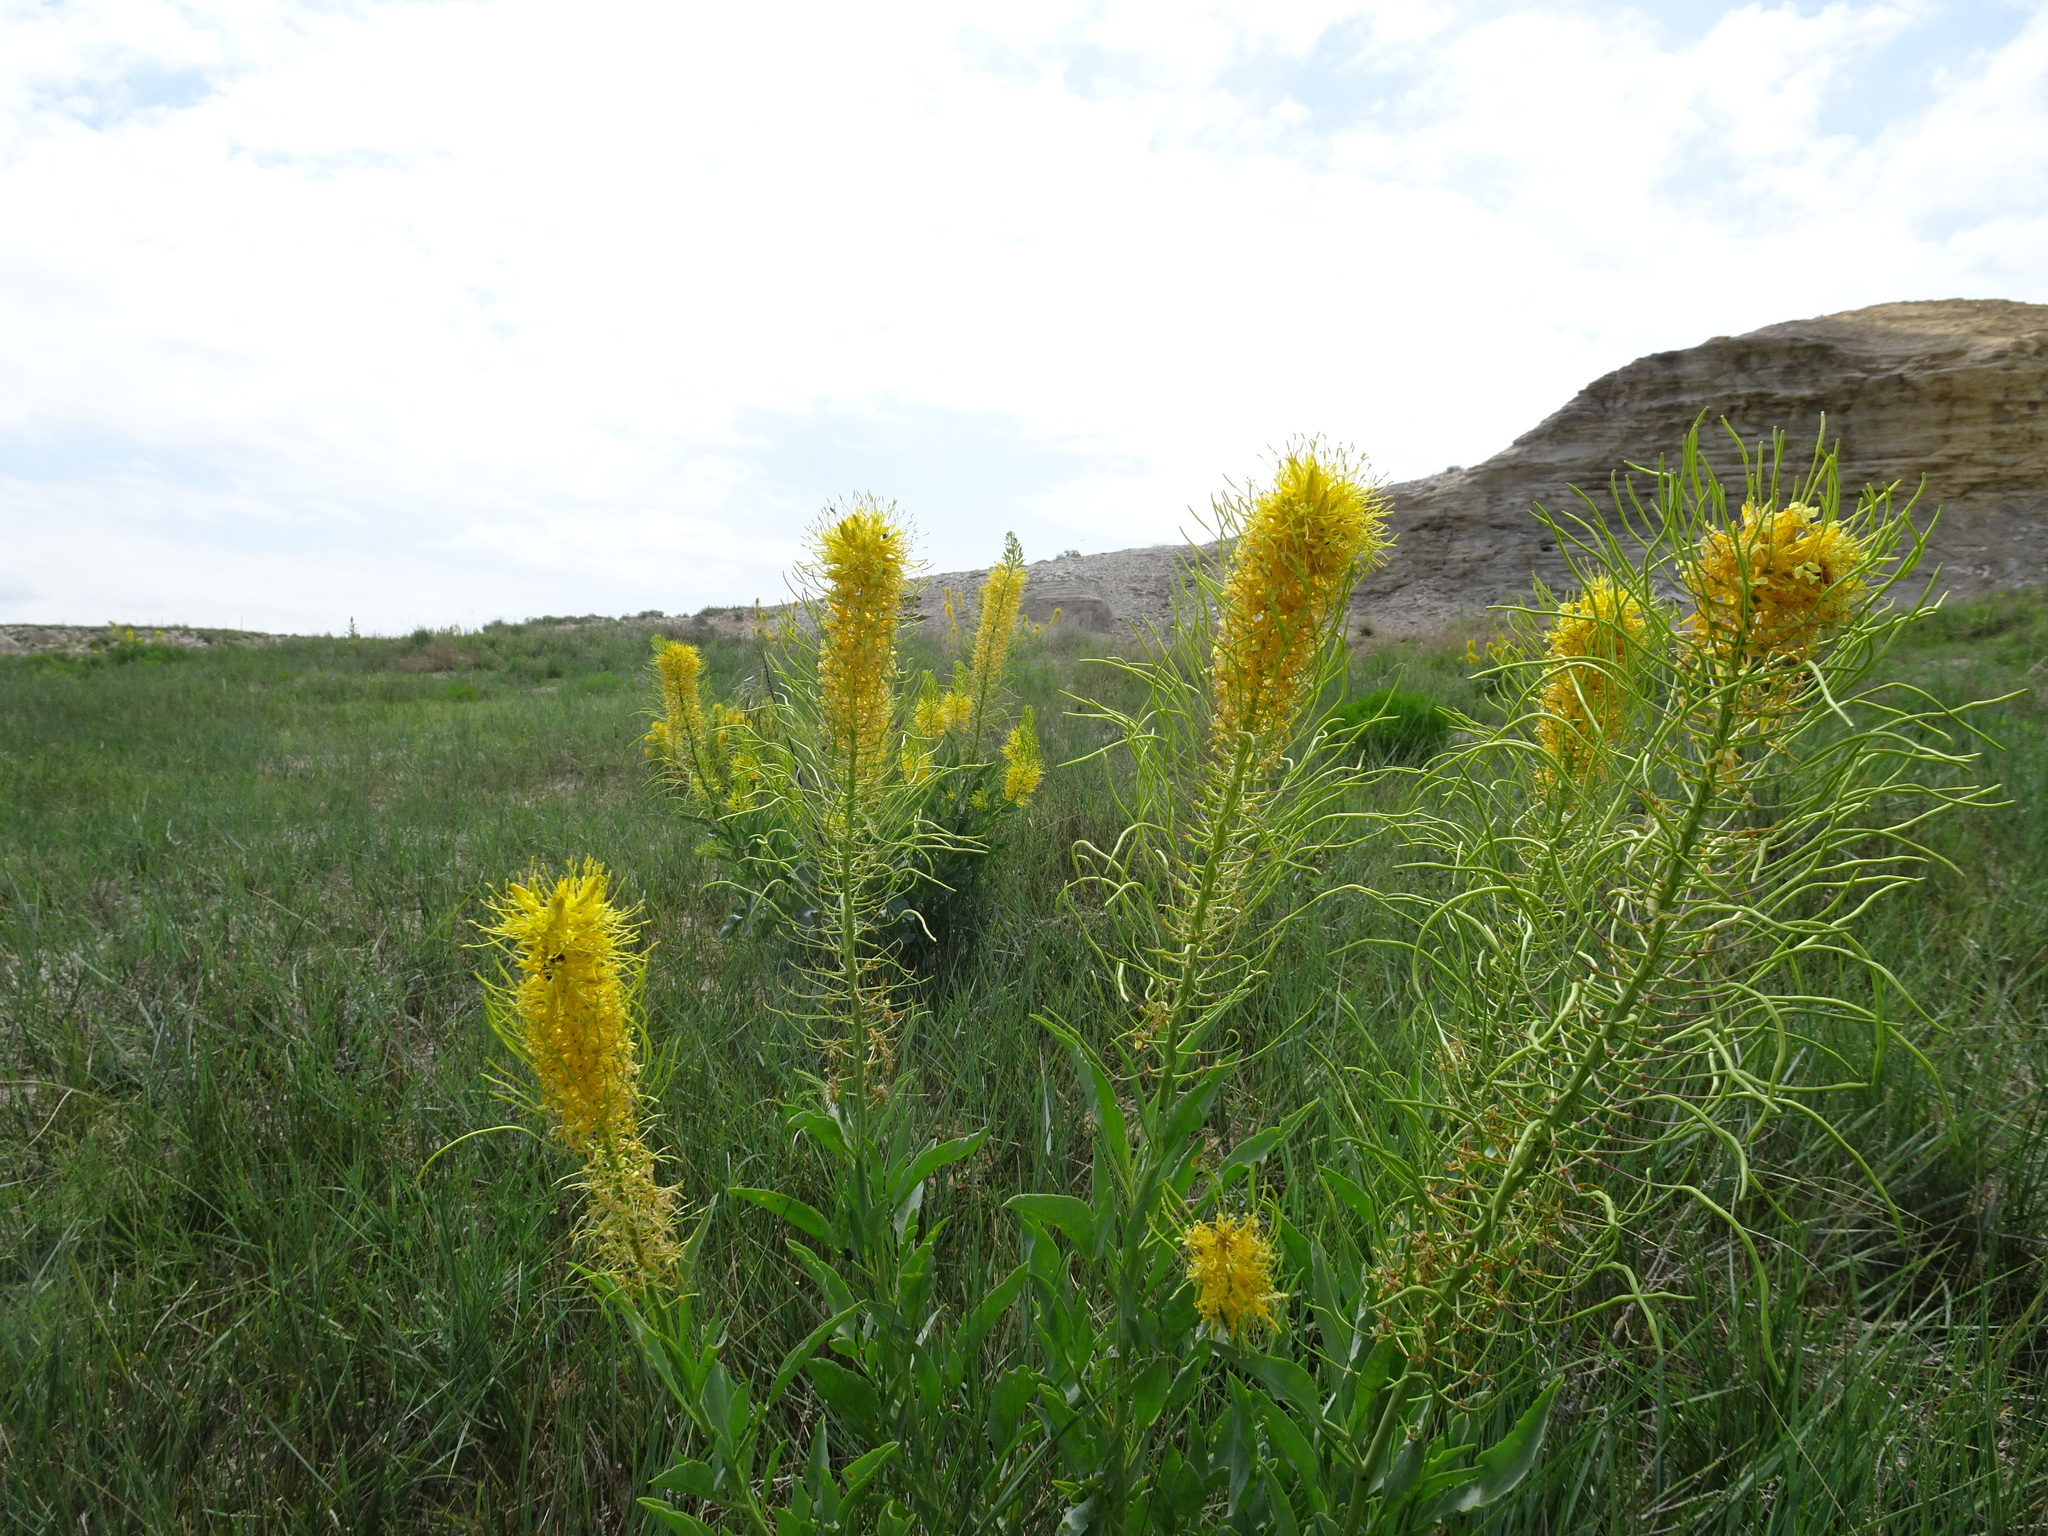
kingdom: Plantae
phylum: Tracheophyta
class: Magnoliopsida
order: Brassicales
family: Brassicaceae
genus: Stanleya
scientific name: Stanleya pinnata
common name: Prince's-plume
